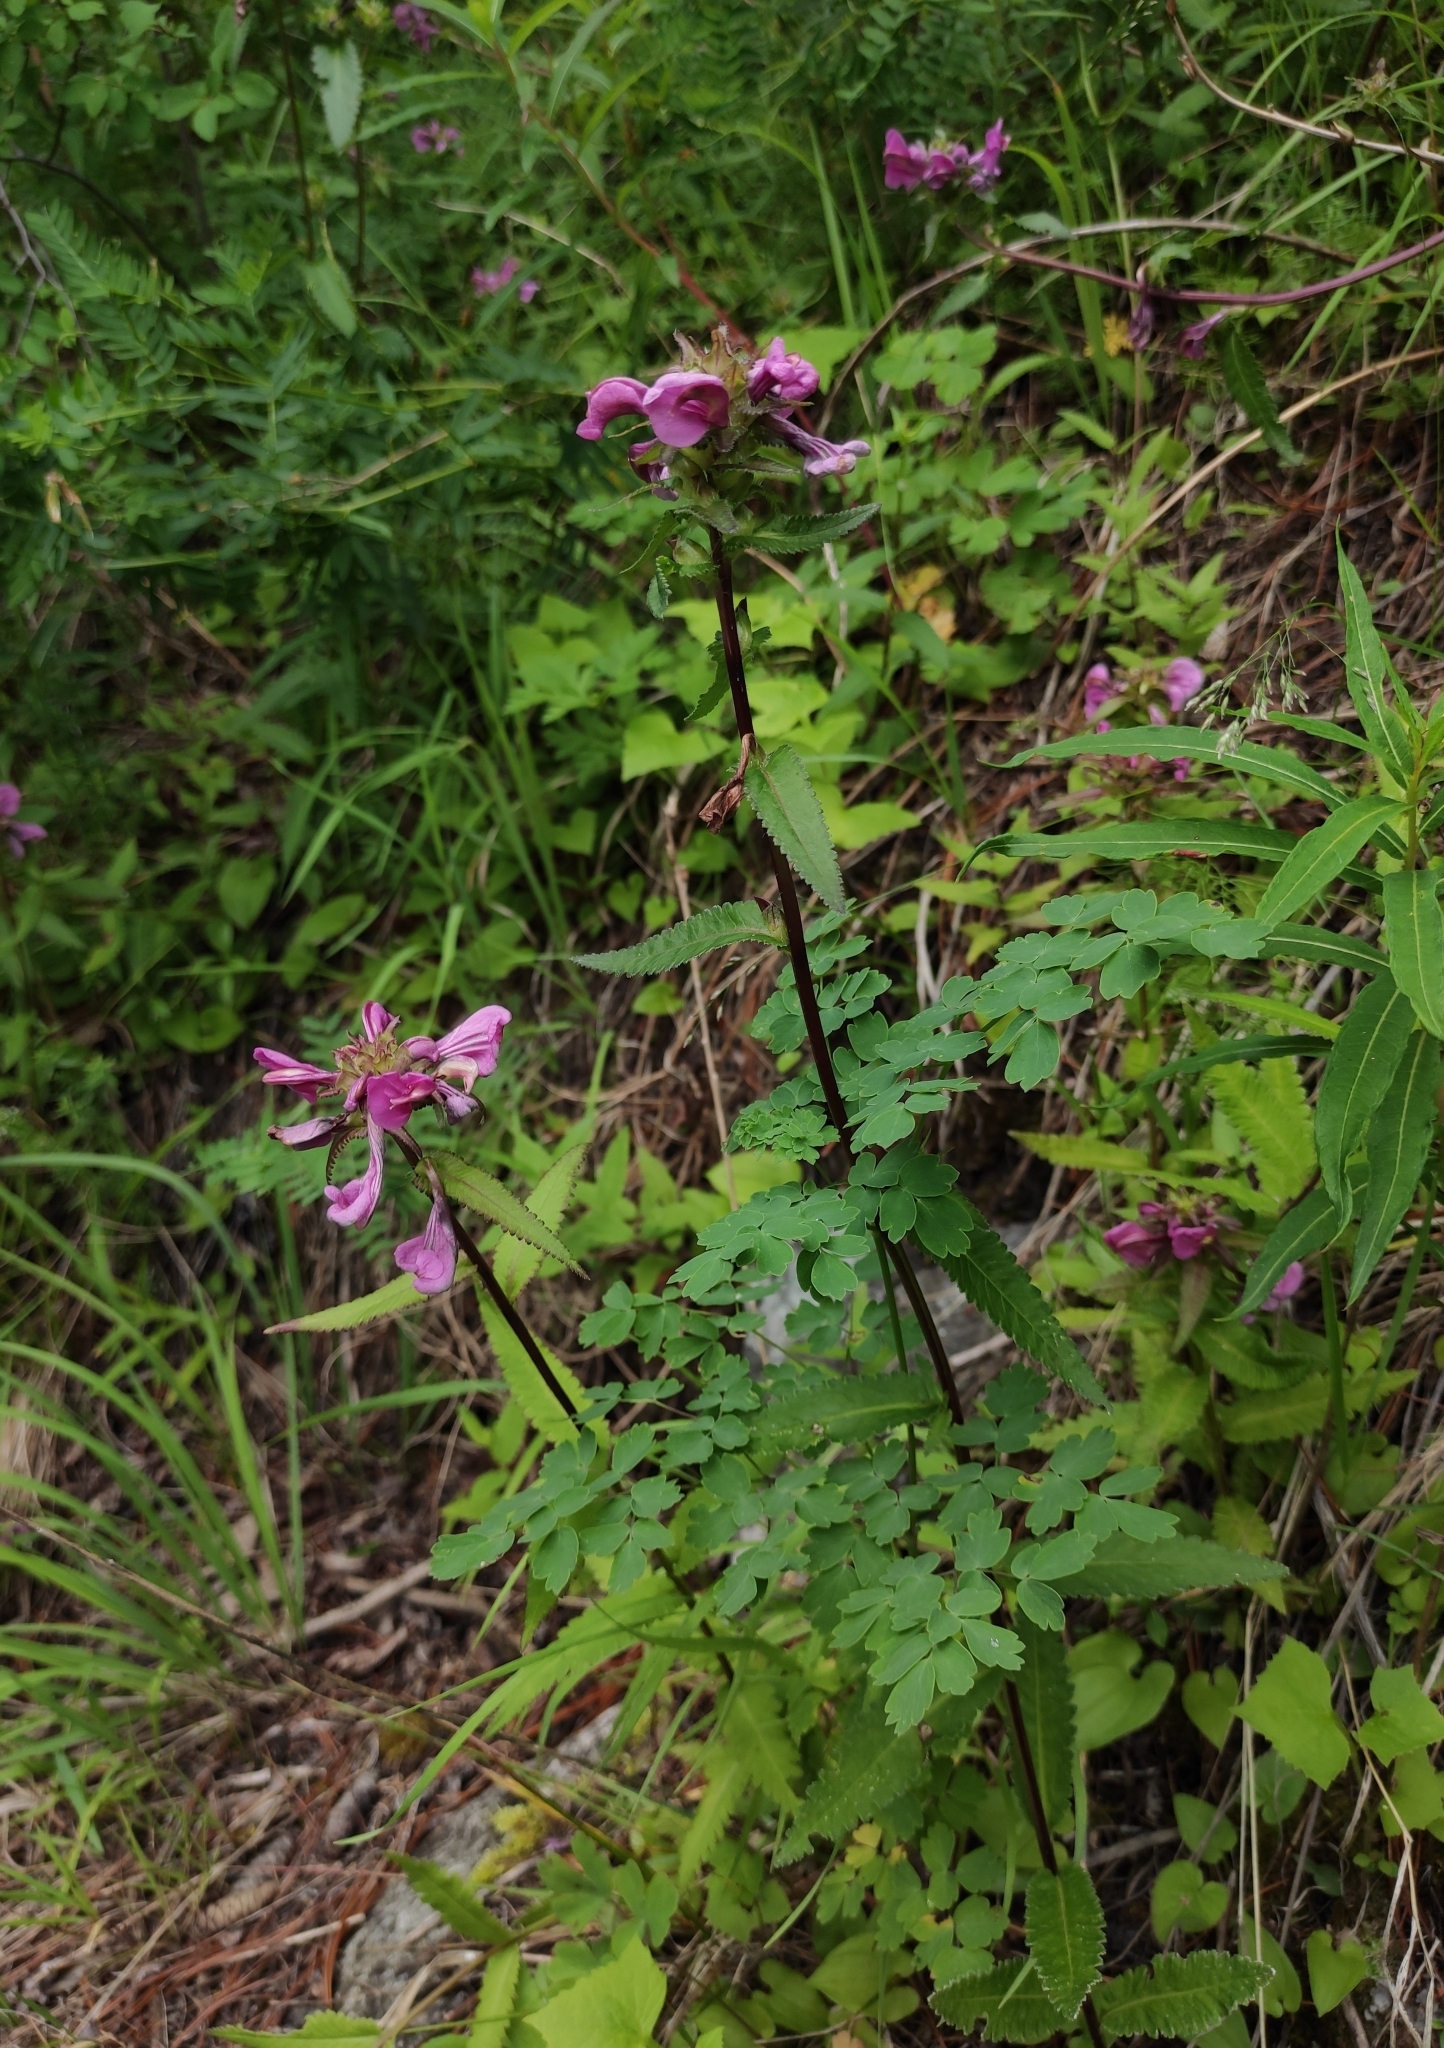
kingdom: Plantae
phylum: Tracheophyta
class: Magnoliopsida
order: Lamiales
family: Orobanchaceae
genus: Pedicularis
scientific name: Pedicularis resupinata
